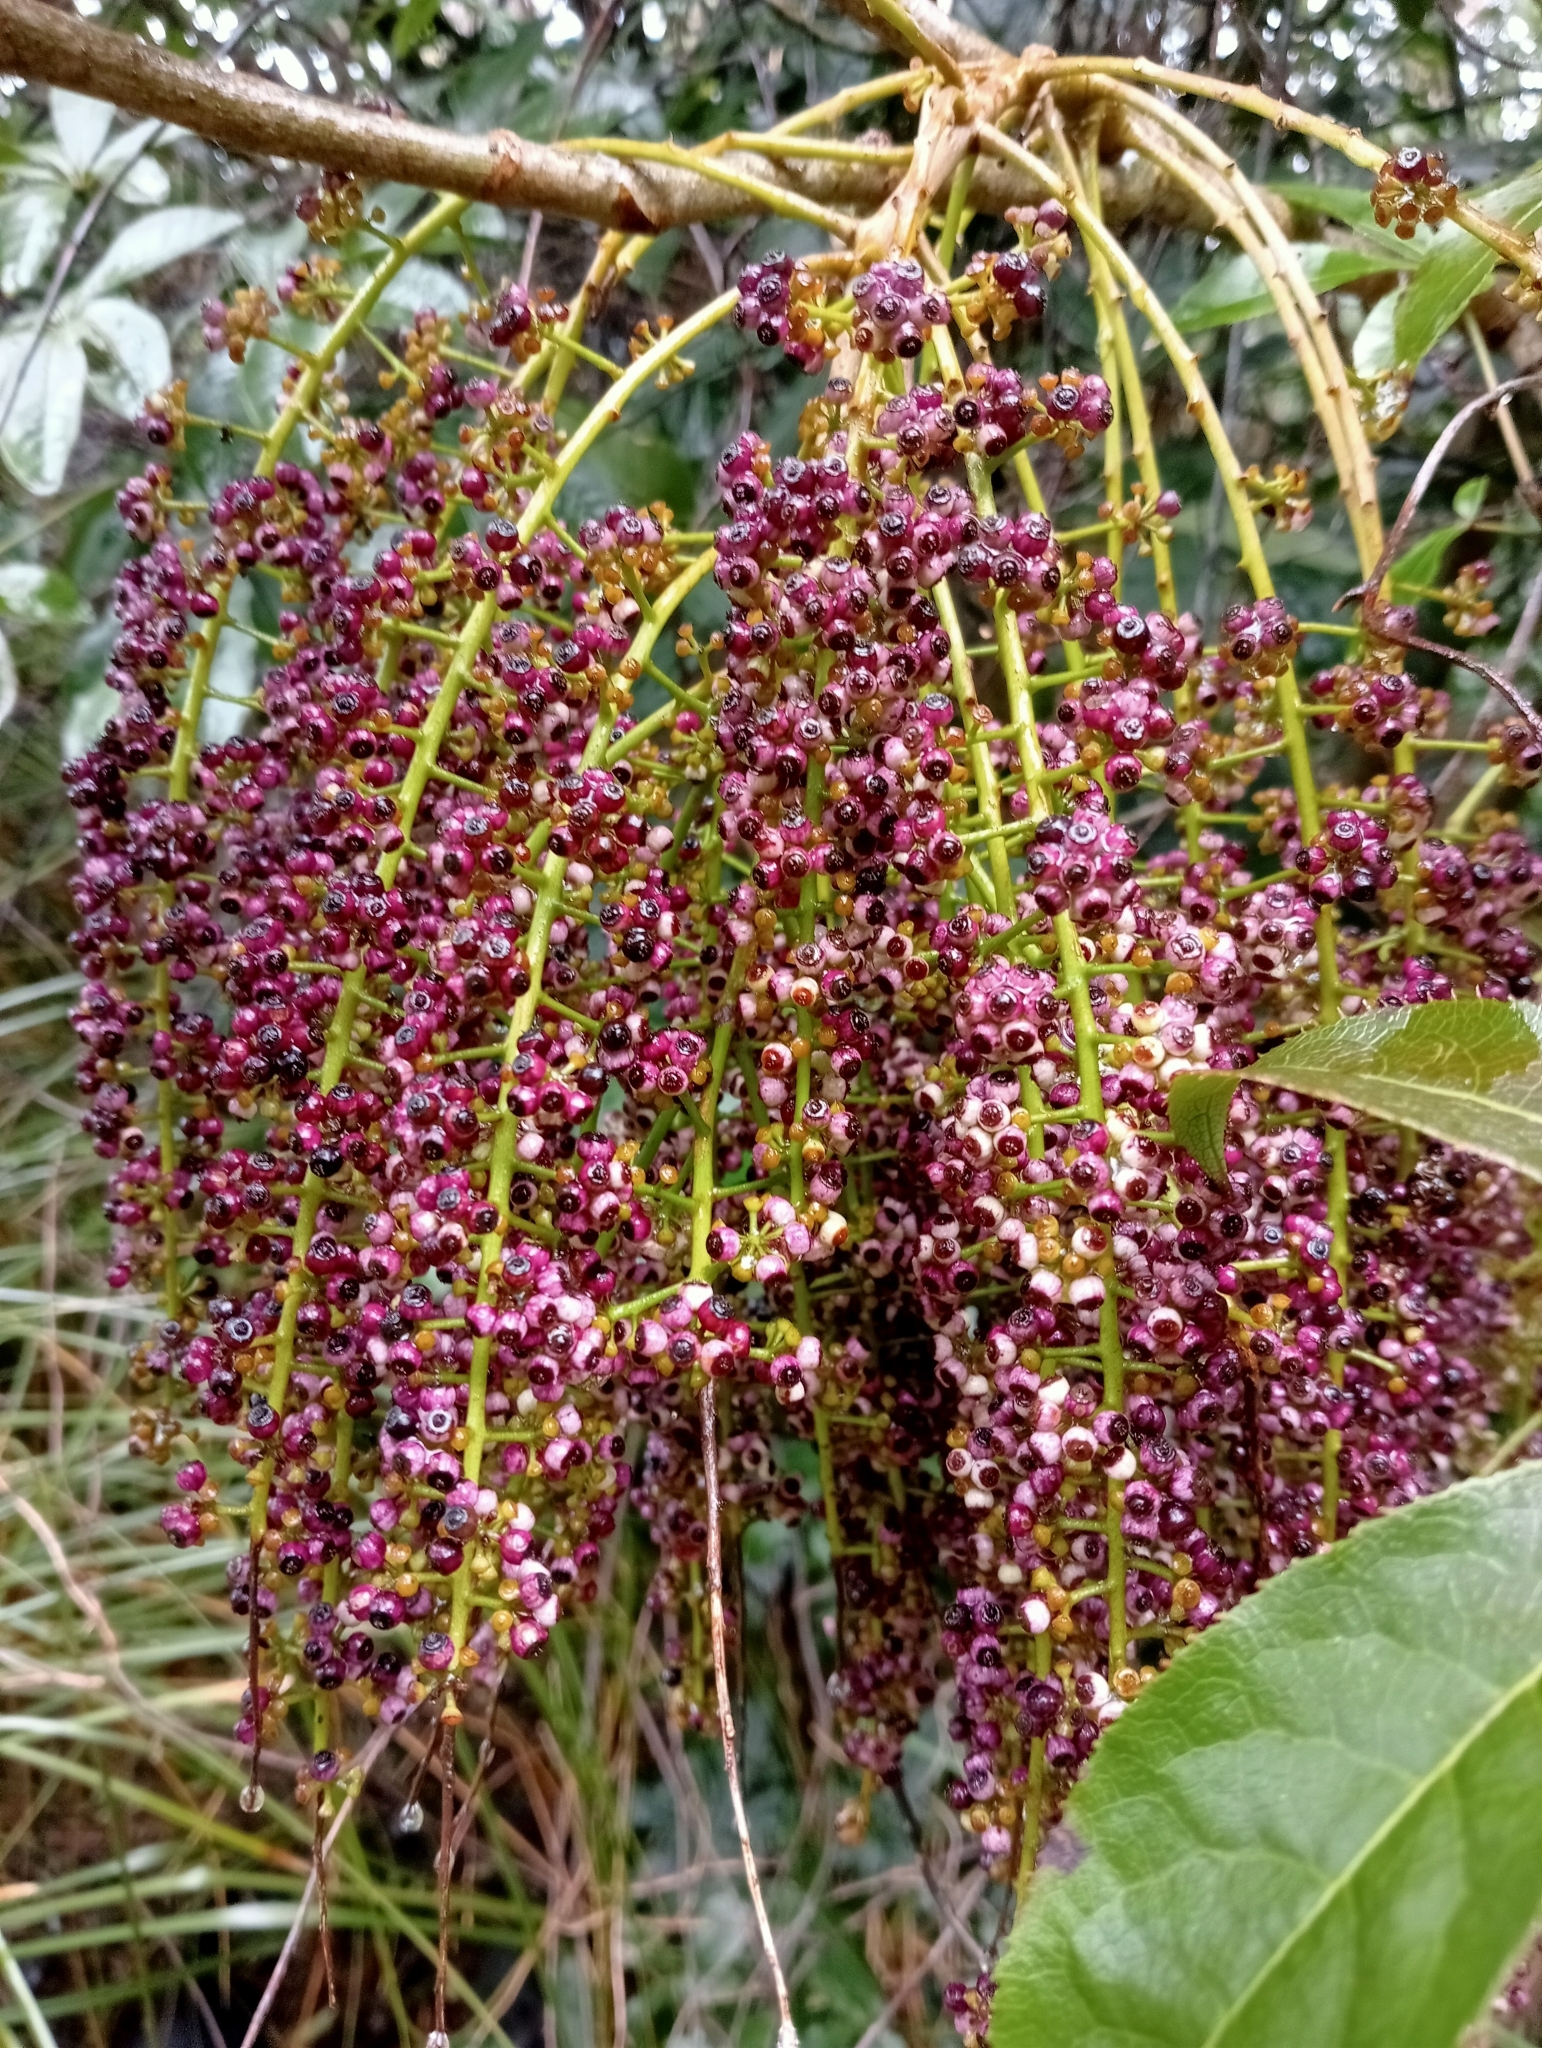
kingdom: Plantae
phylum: Tracheophyta
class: Magnoliopsida
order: Apiales
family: Araliaceae
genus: Schefflera
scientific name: Schefflera digitata
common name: Pate
